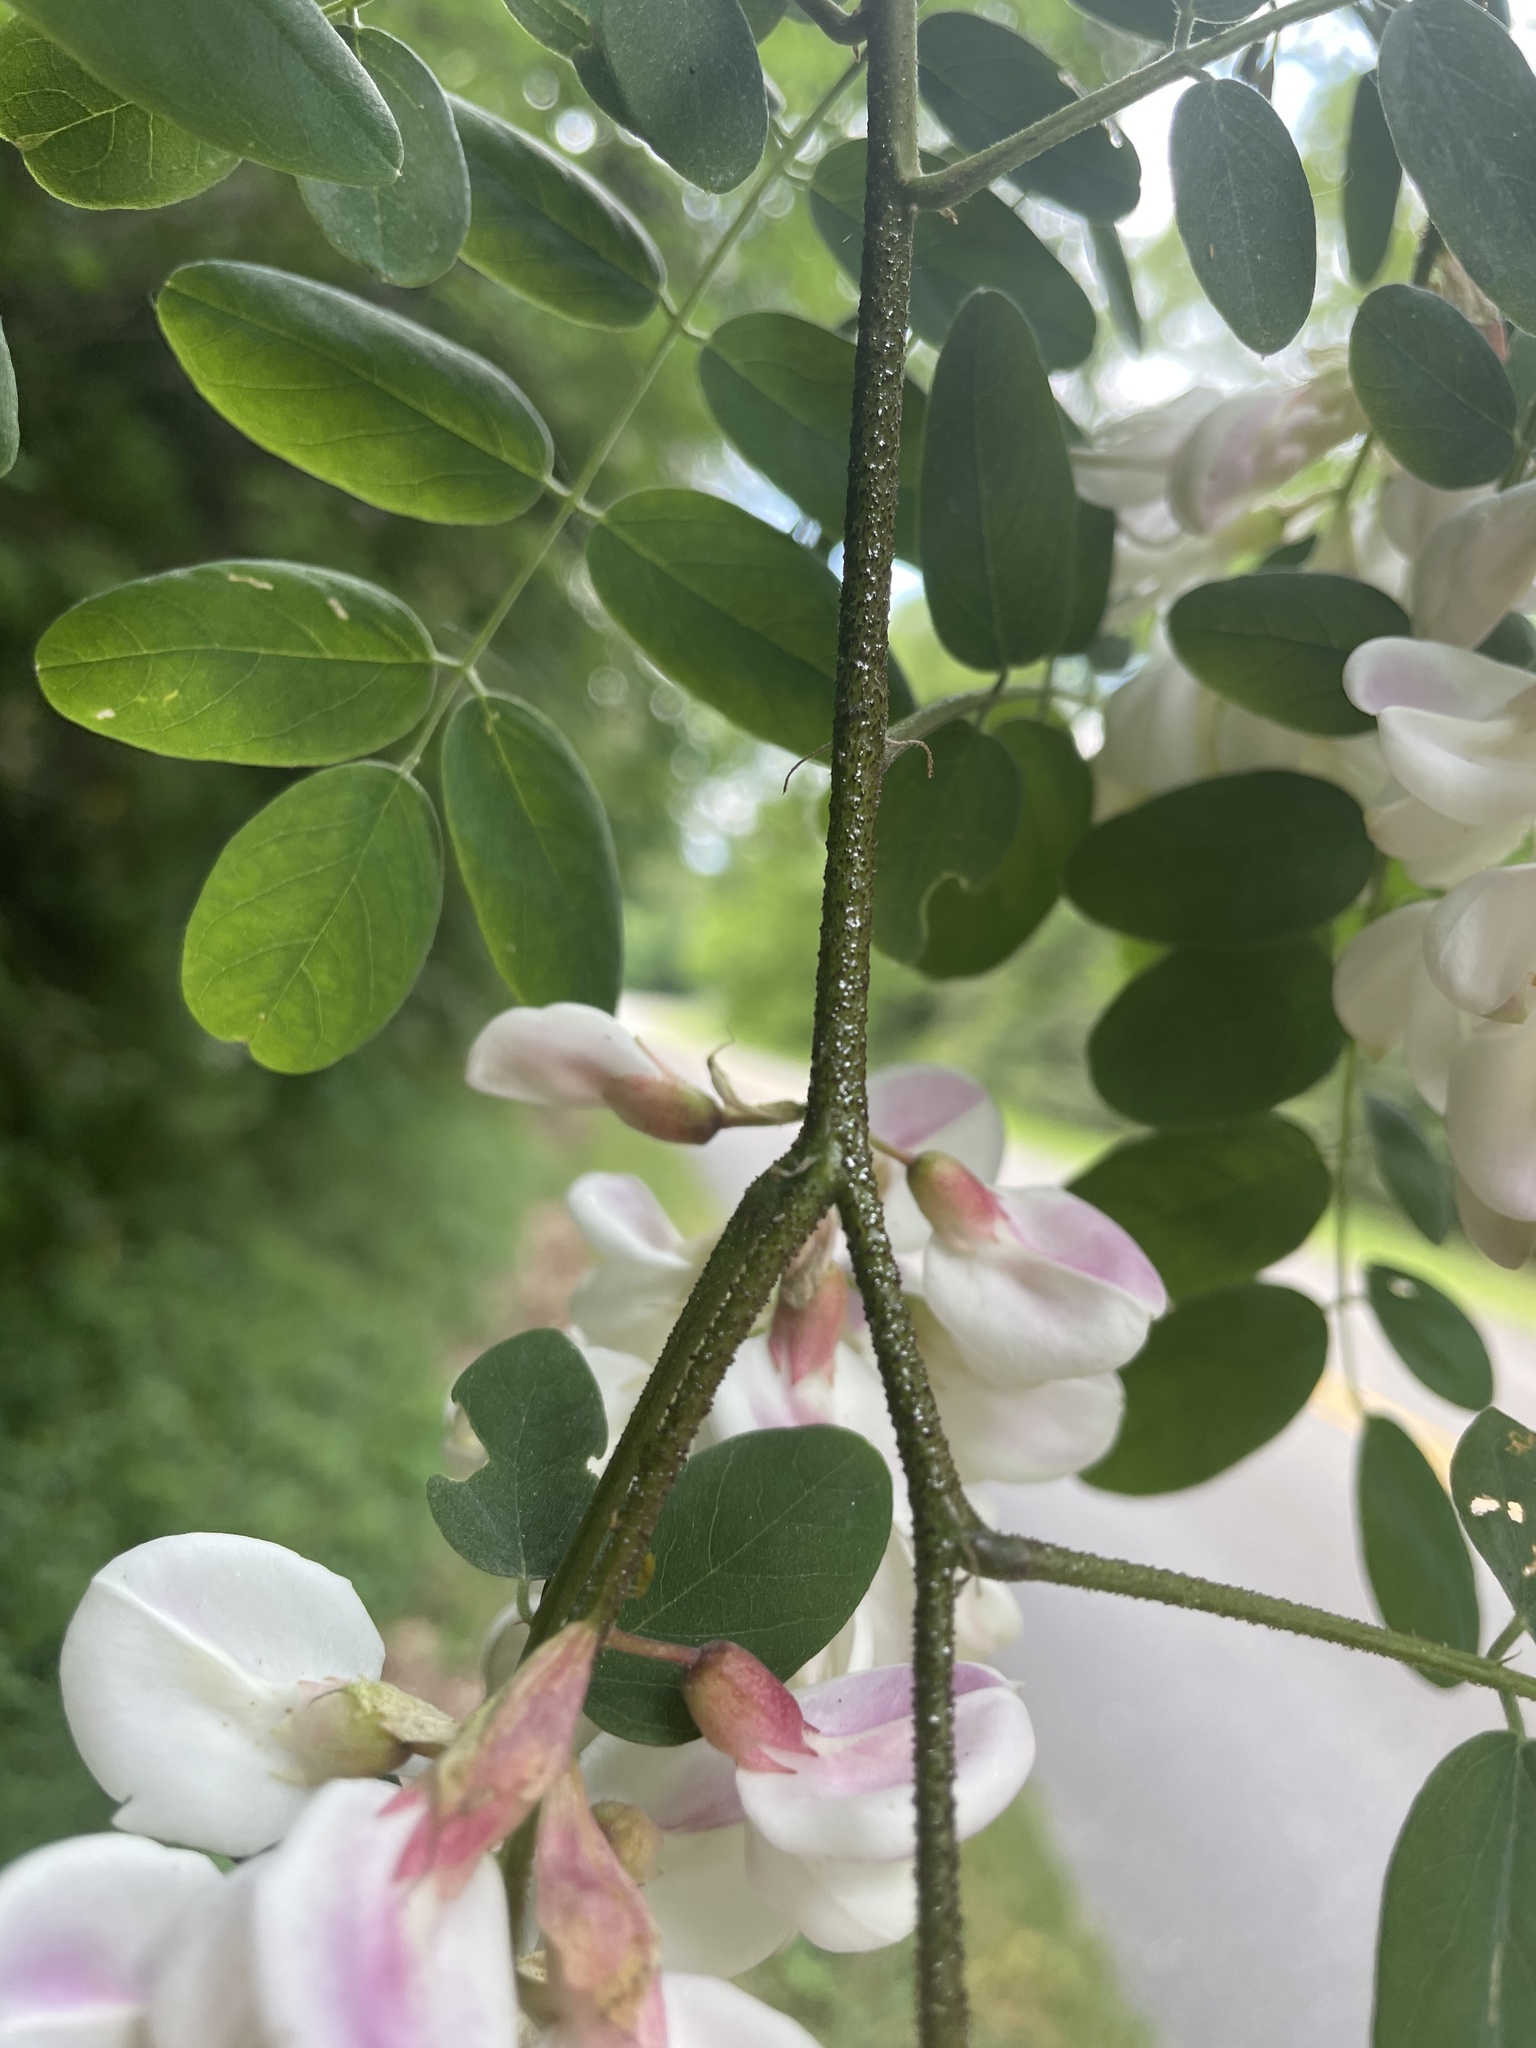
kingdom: Plantae
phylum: Tracheophyta
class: Magnoliopsida
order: Fabales
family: Fabaceae
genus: Robinia
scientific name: Robinia viscosa
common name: Clammy locust
